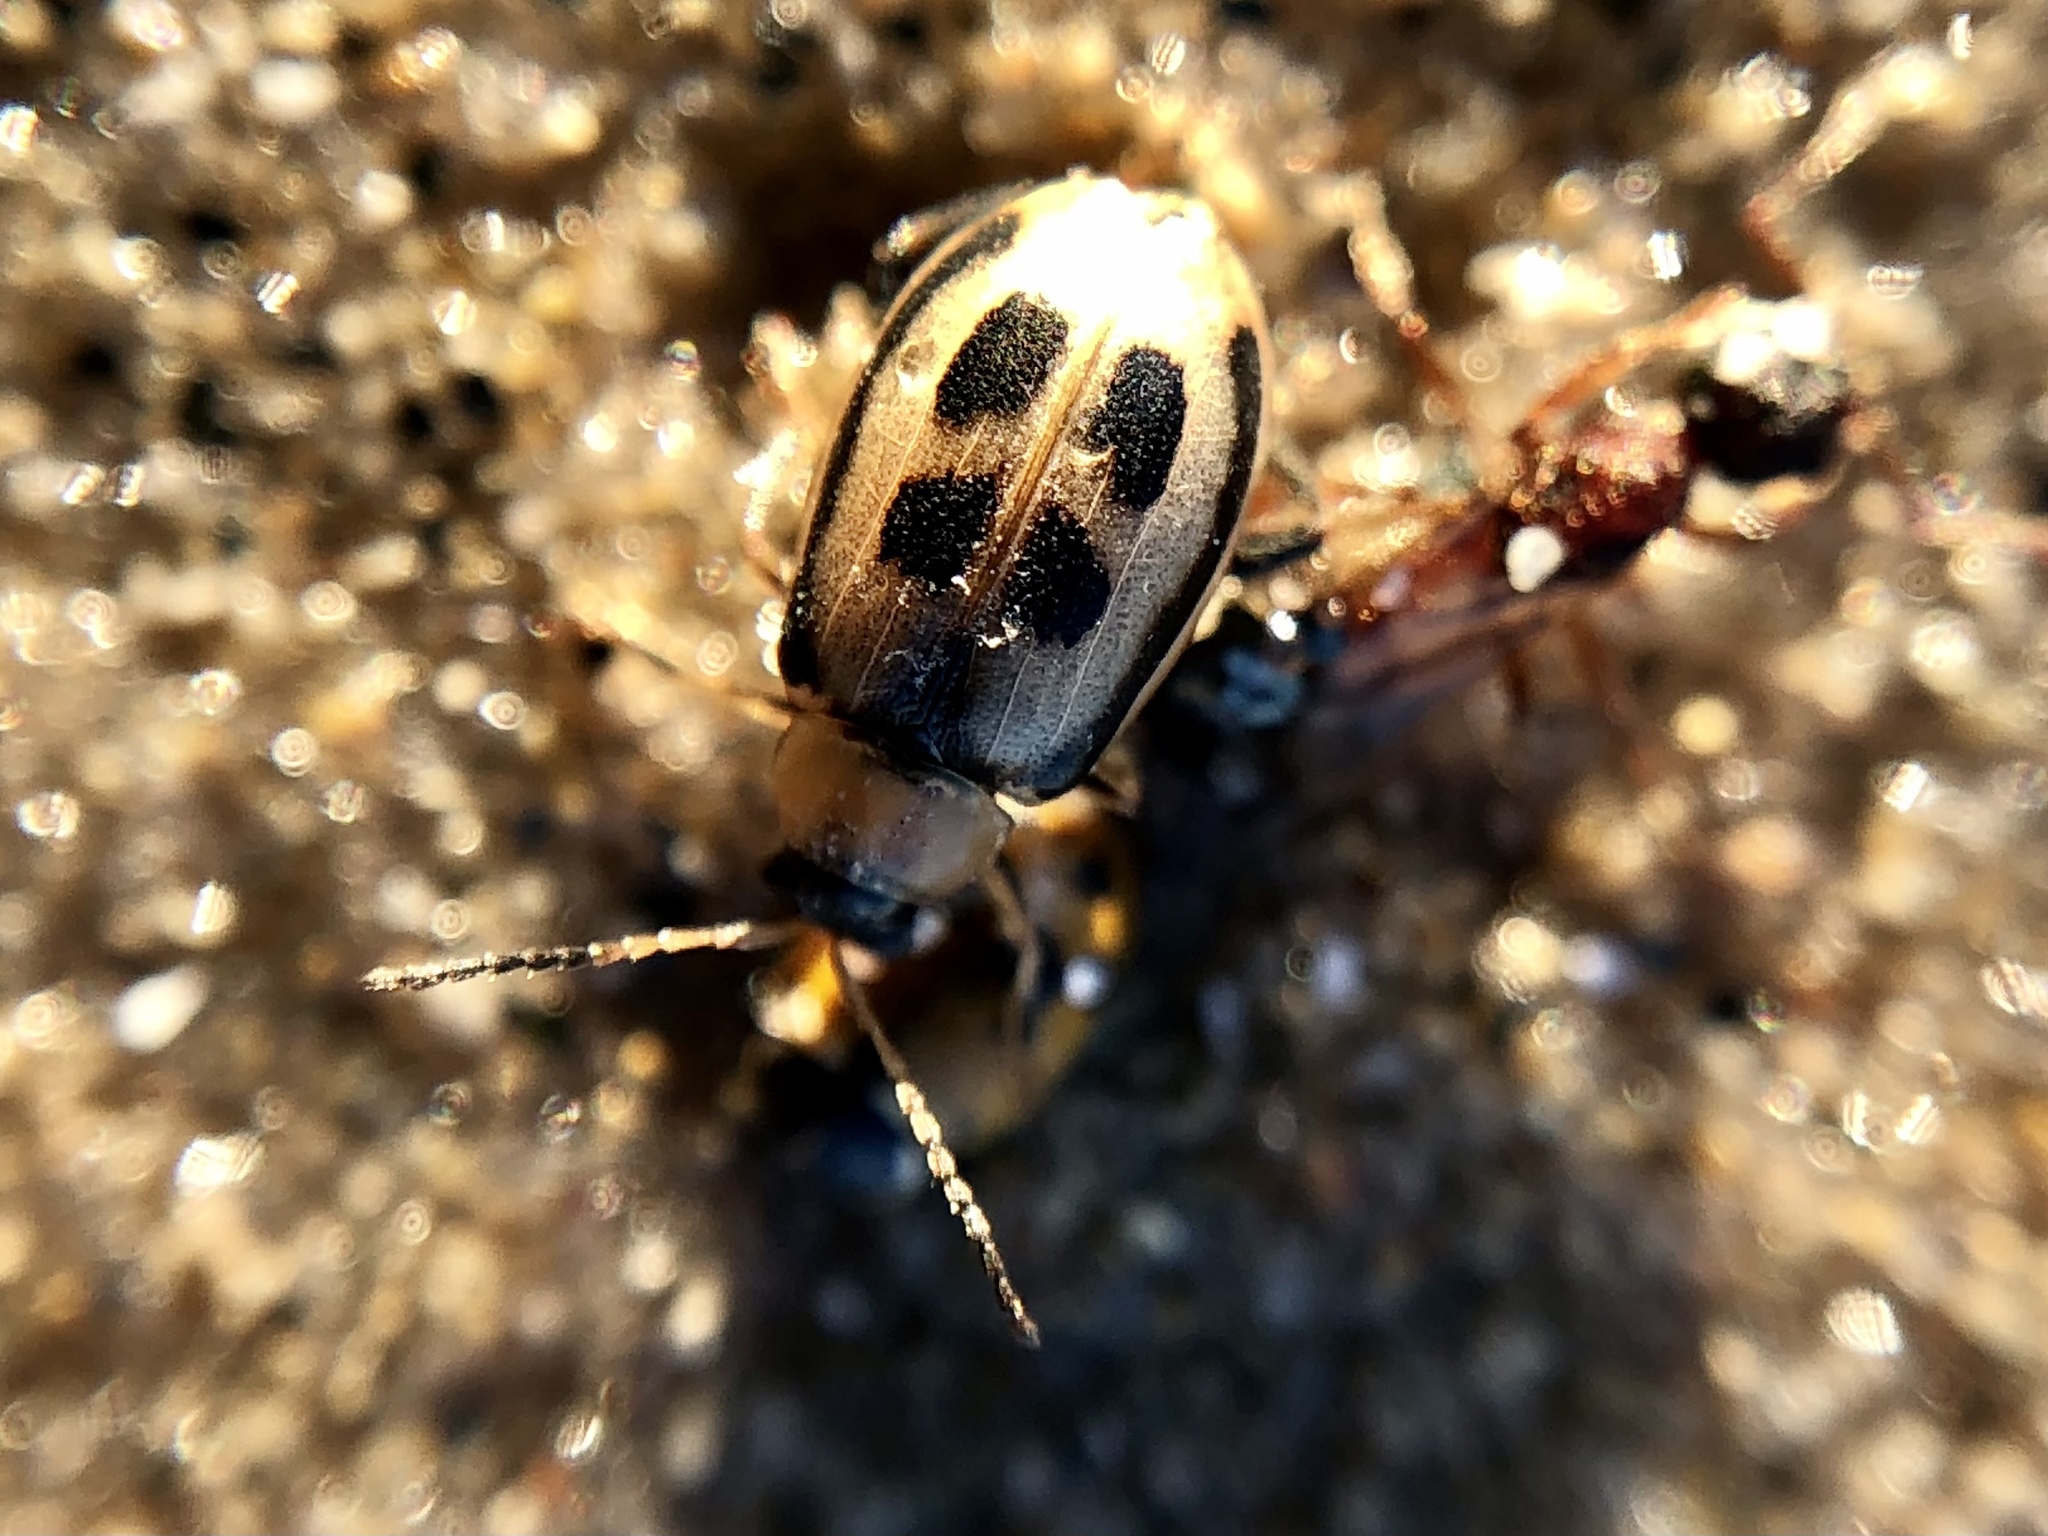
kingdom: Animalia
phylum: Arthropoda
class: Insecta
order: Coleoptera
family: Chrysomelidae
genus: Cerotoma
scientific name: Cerotoma trifurcata
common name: Bean leaf beetle
